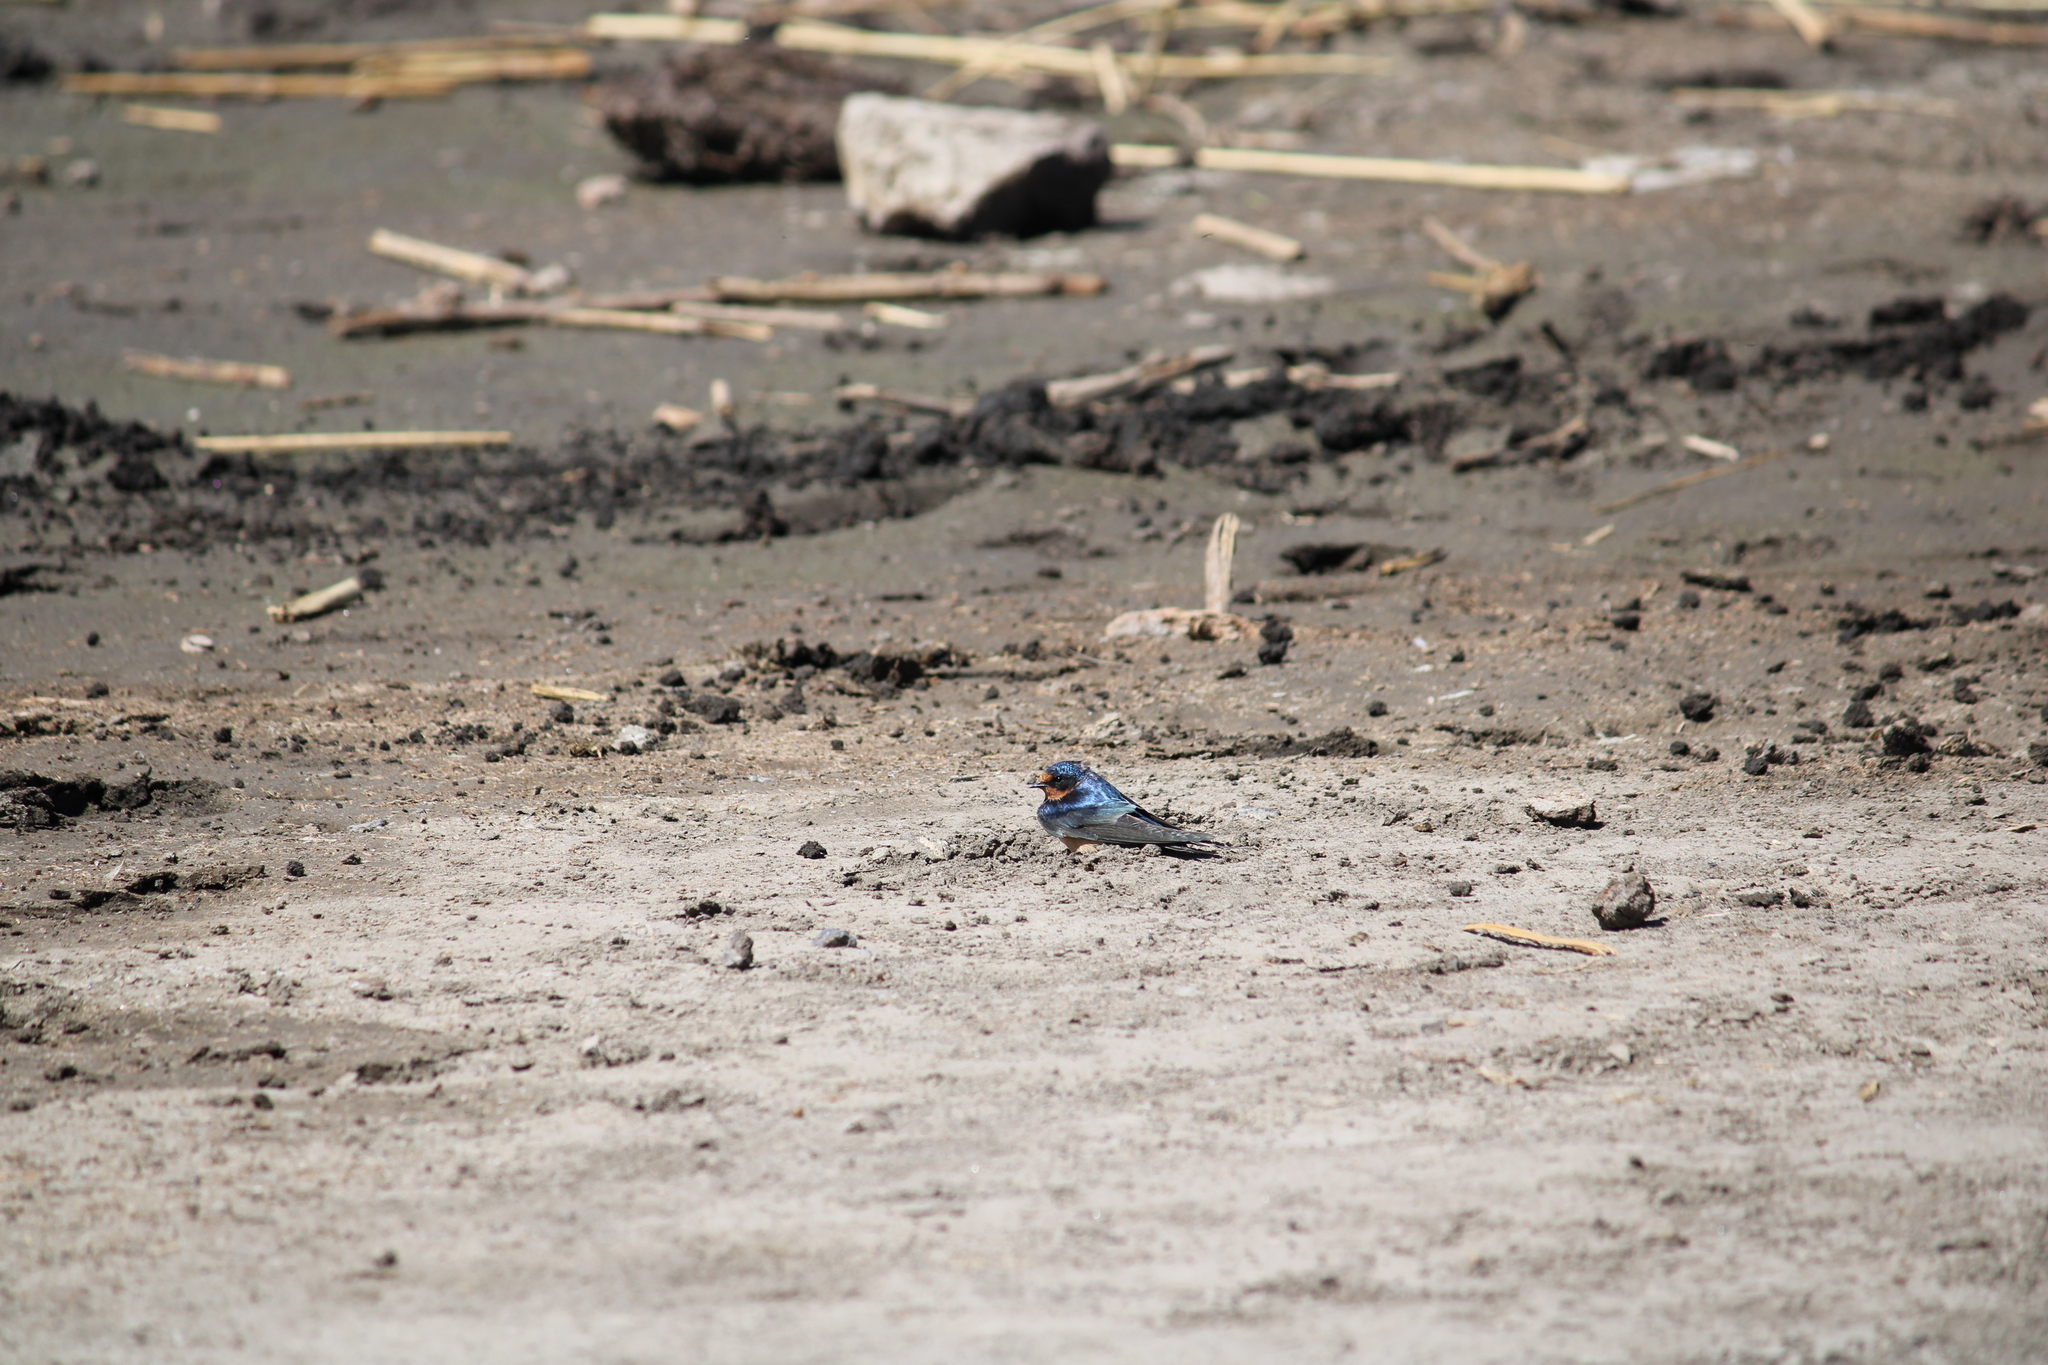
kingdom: Animalia
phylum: Chordata
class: Aves
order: Passeriformes
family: Hirundinidae
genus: Hirundo
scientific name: Hirundo rustica
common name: Barn swallow
